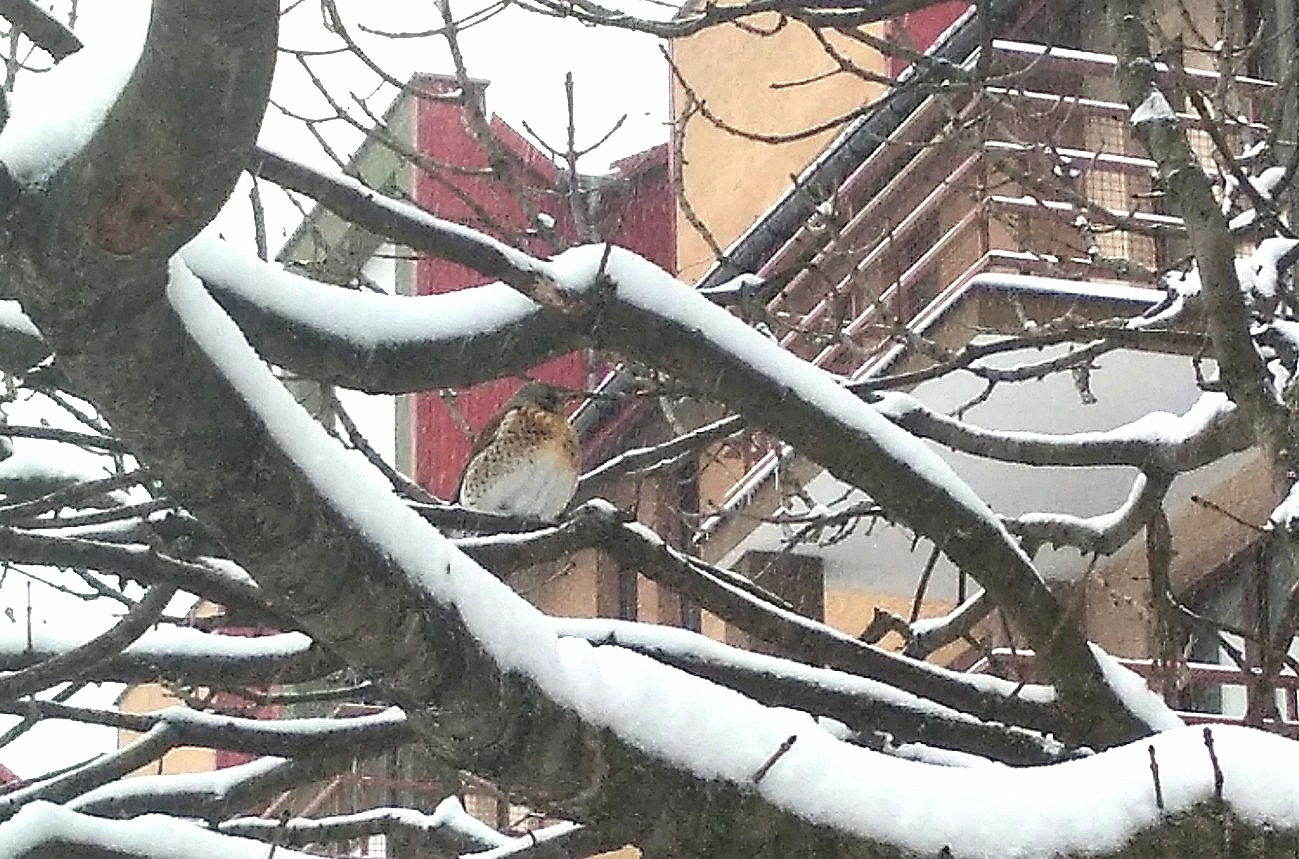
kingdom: Animalia
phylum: Chordata
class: Aves
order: Passeriformes
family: Turdidae
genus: Turdus
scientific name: Turdus pilaris
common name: Fieldfare
